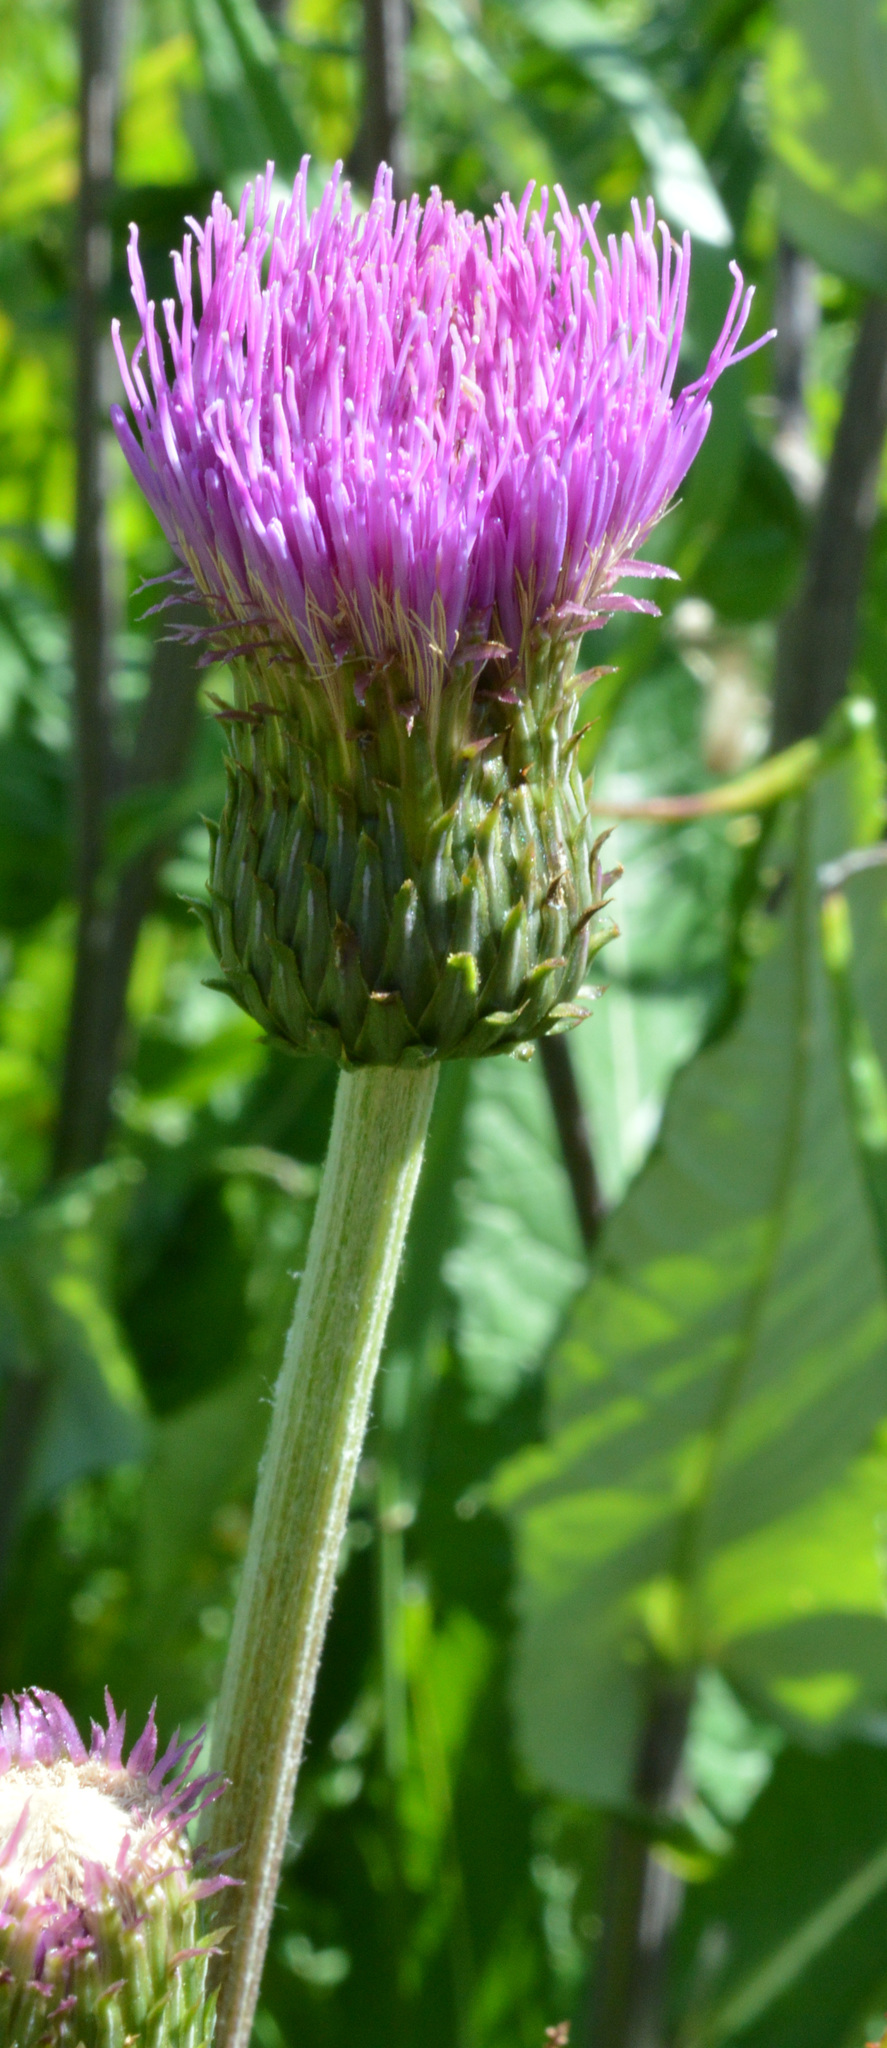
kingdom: Plantae
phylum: Tracheophyta
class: Magnoliopsida
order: Asterales
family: Asteraceae
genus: Cirsium
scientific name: Cirsium heterophyllum
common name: Melancholy thistle
